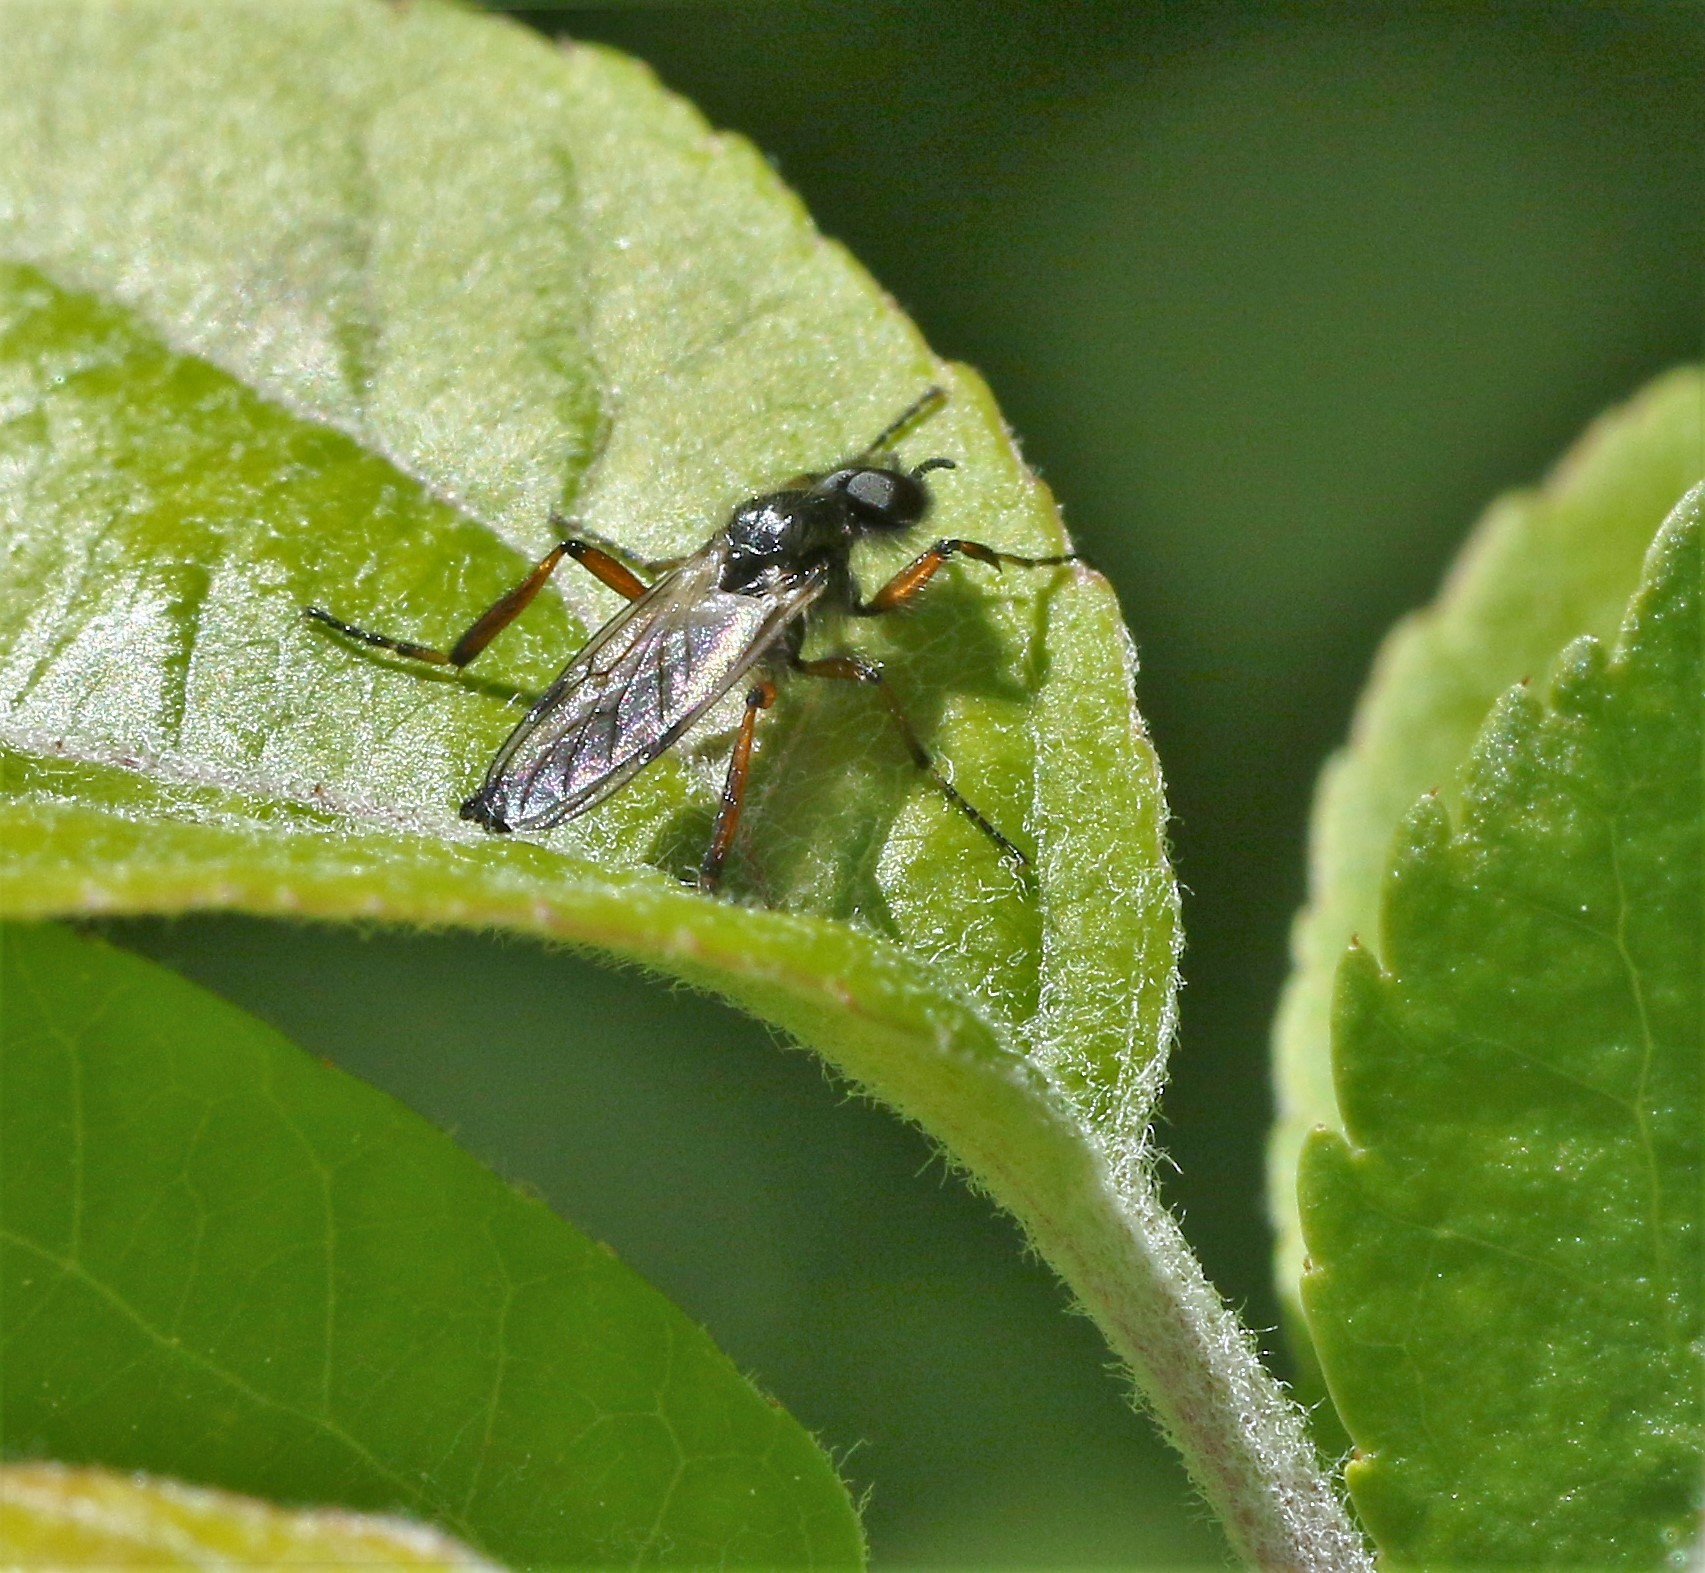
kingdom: Animalia
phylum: Arthropoda
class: Insecta
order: Diptera
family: Bibionidae
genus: Bibio
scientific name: Bibio xanthopus
